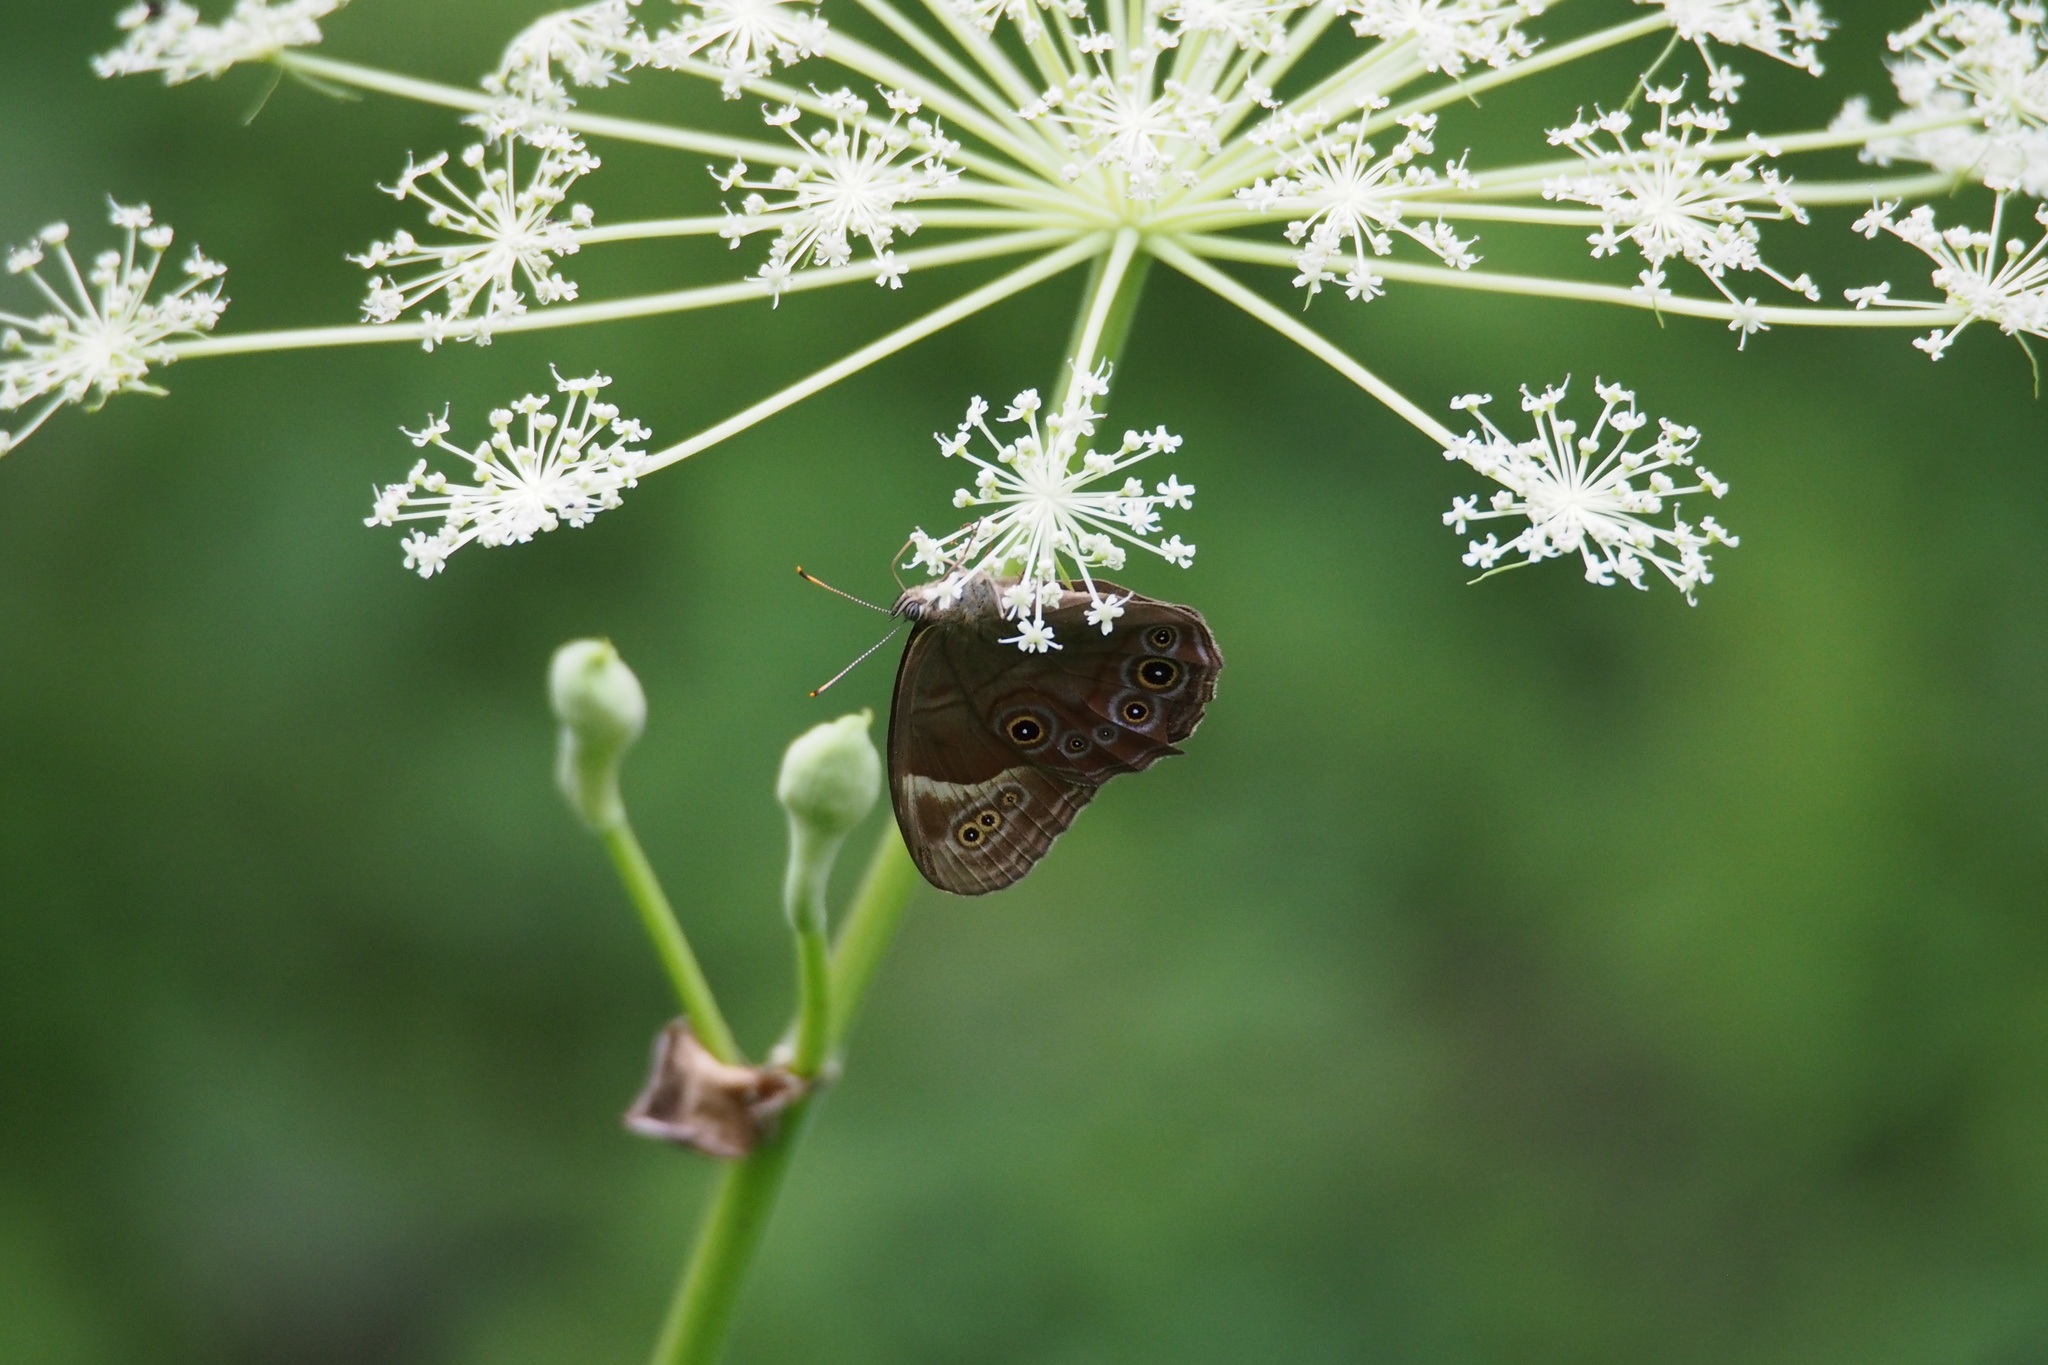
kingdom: Animalia
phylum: Arthropoda
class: Insecta
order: Lepidoptera
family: Nymphalidae
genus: Lethe
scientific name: Lethe diana
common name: Diana treebrown
